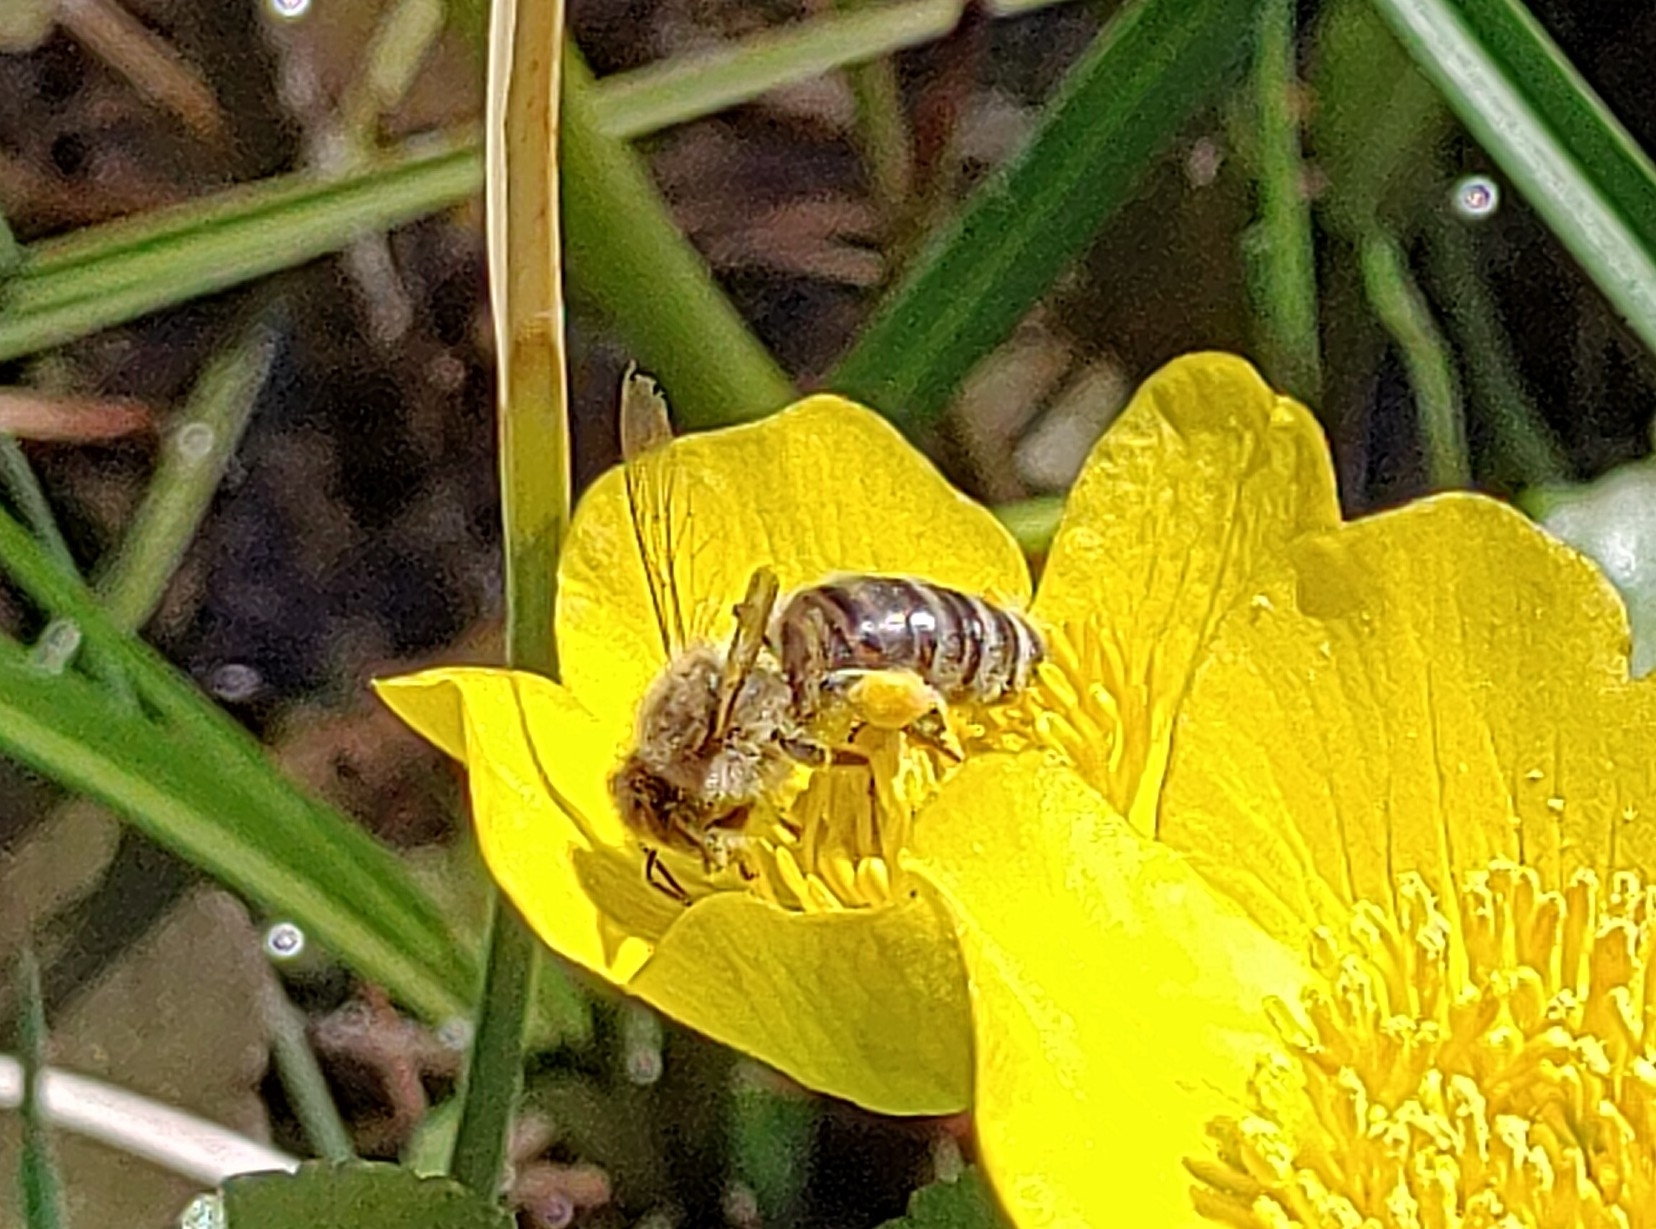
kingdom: Animalia
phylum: Arthropoda
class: Insecta
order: Hymenoptera
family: Apidae
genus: Apis
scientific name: Apis mellifera
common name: Honey bee
